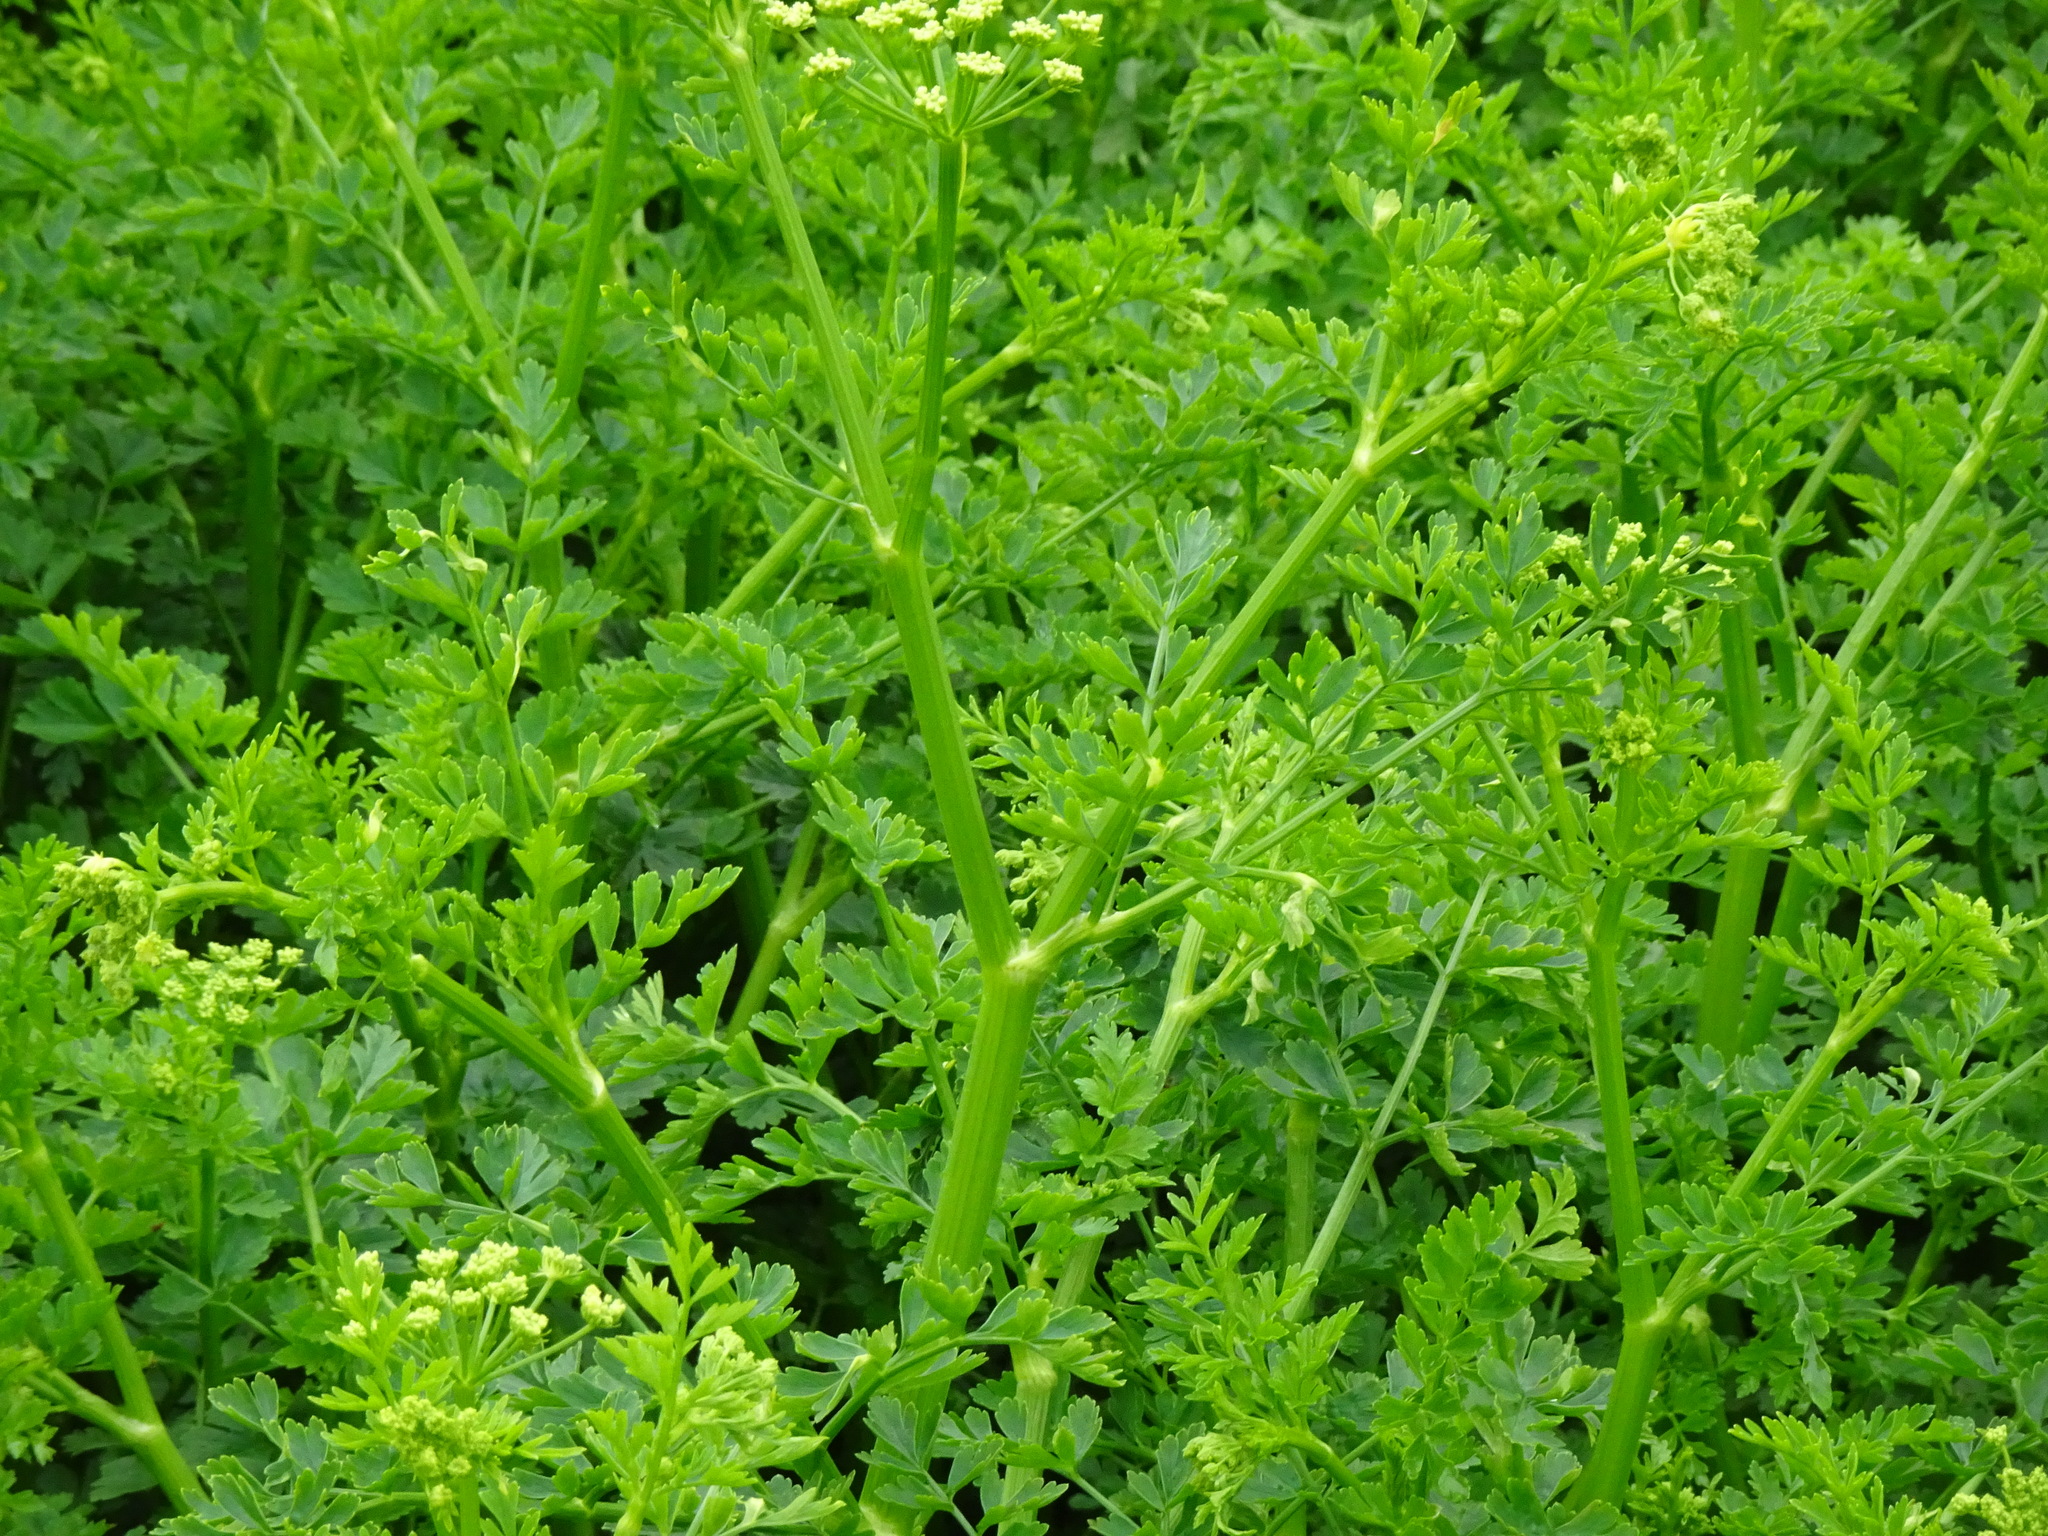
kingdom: Plantae
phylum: Tracheophyta
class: Magnoliopsida
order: Apiales
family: Apiaceae
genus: Oenanthe
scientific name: Oenanthe crocata
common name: Hemlock water-dropwort
